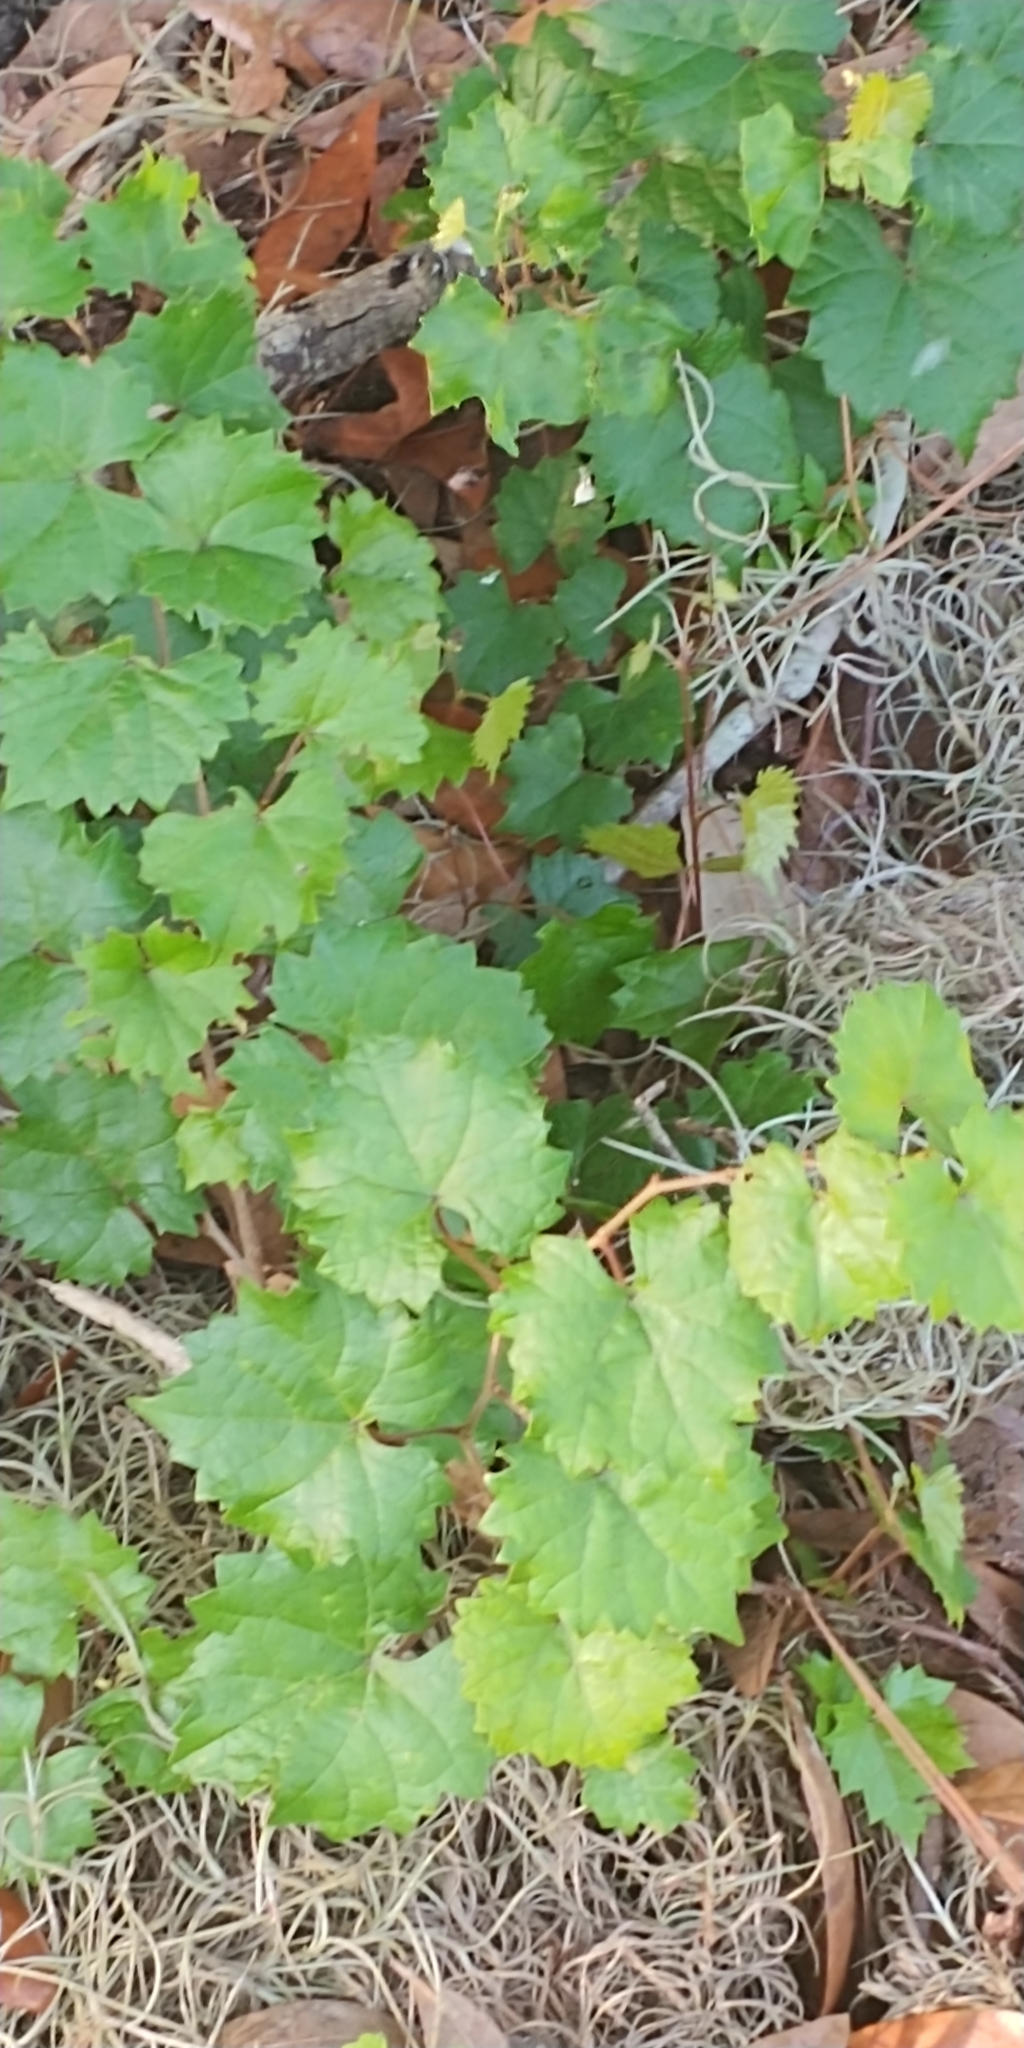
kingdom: Plantae
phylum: Tracheophyta
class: Magnoliopsida
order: Vitales
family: Vitaceae
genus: Vitis
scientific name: Vitis rotundifolia
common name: Muscadine grape
